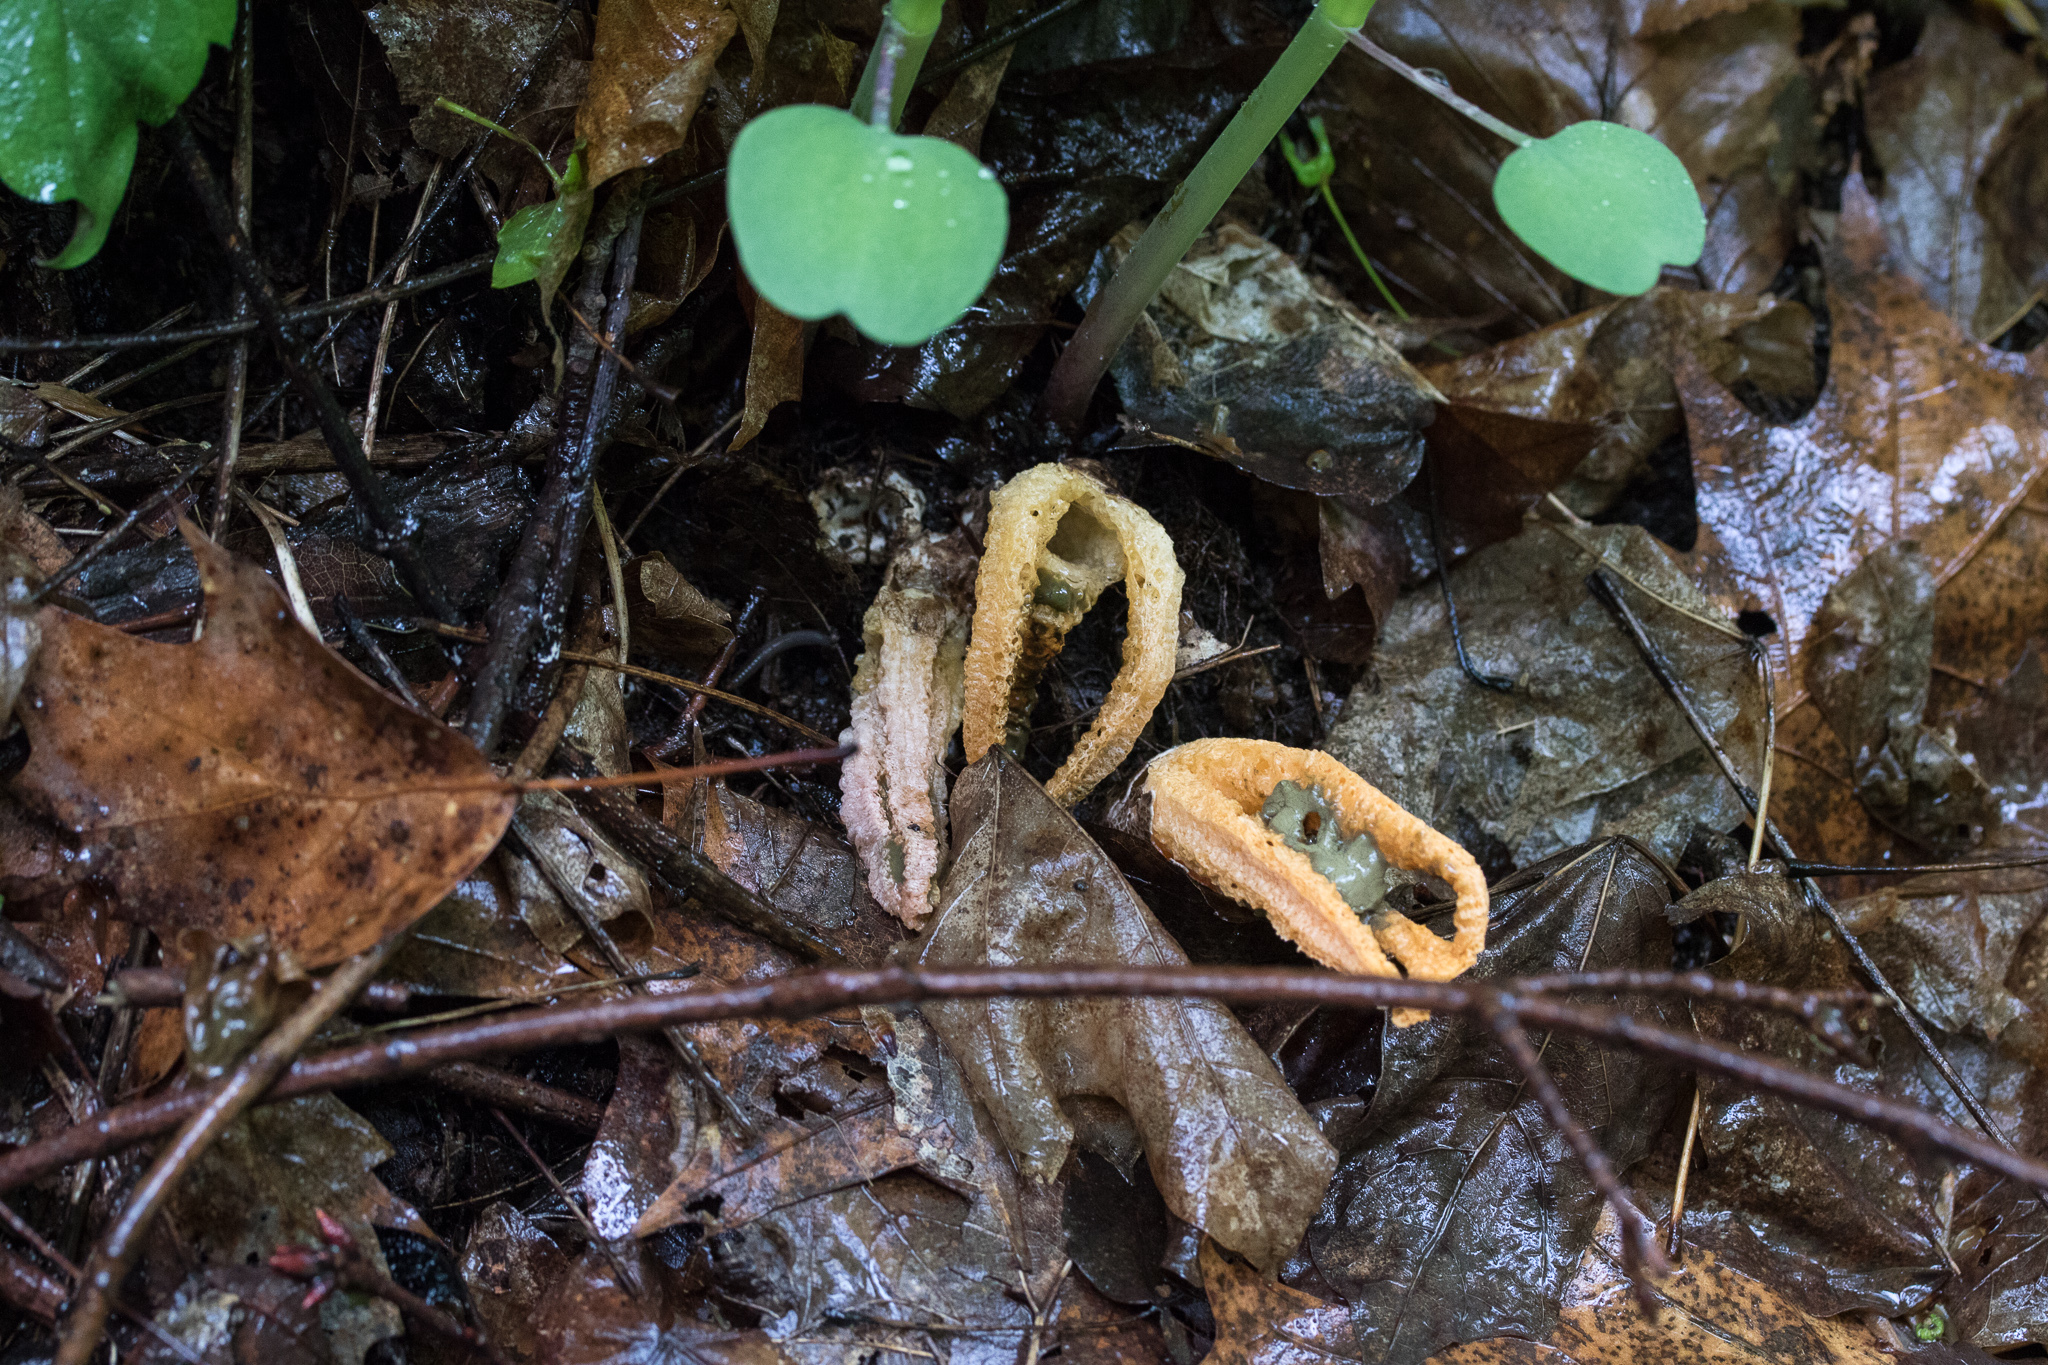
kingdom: Fungi
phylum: Basidiomycota
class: Agaricomycetes
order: Phallales
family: Phallaceae
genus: Pseudocolus
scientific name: Pseudocolus fusiformis
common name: Stinky squid
